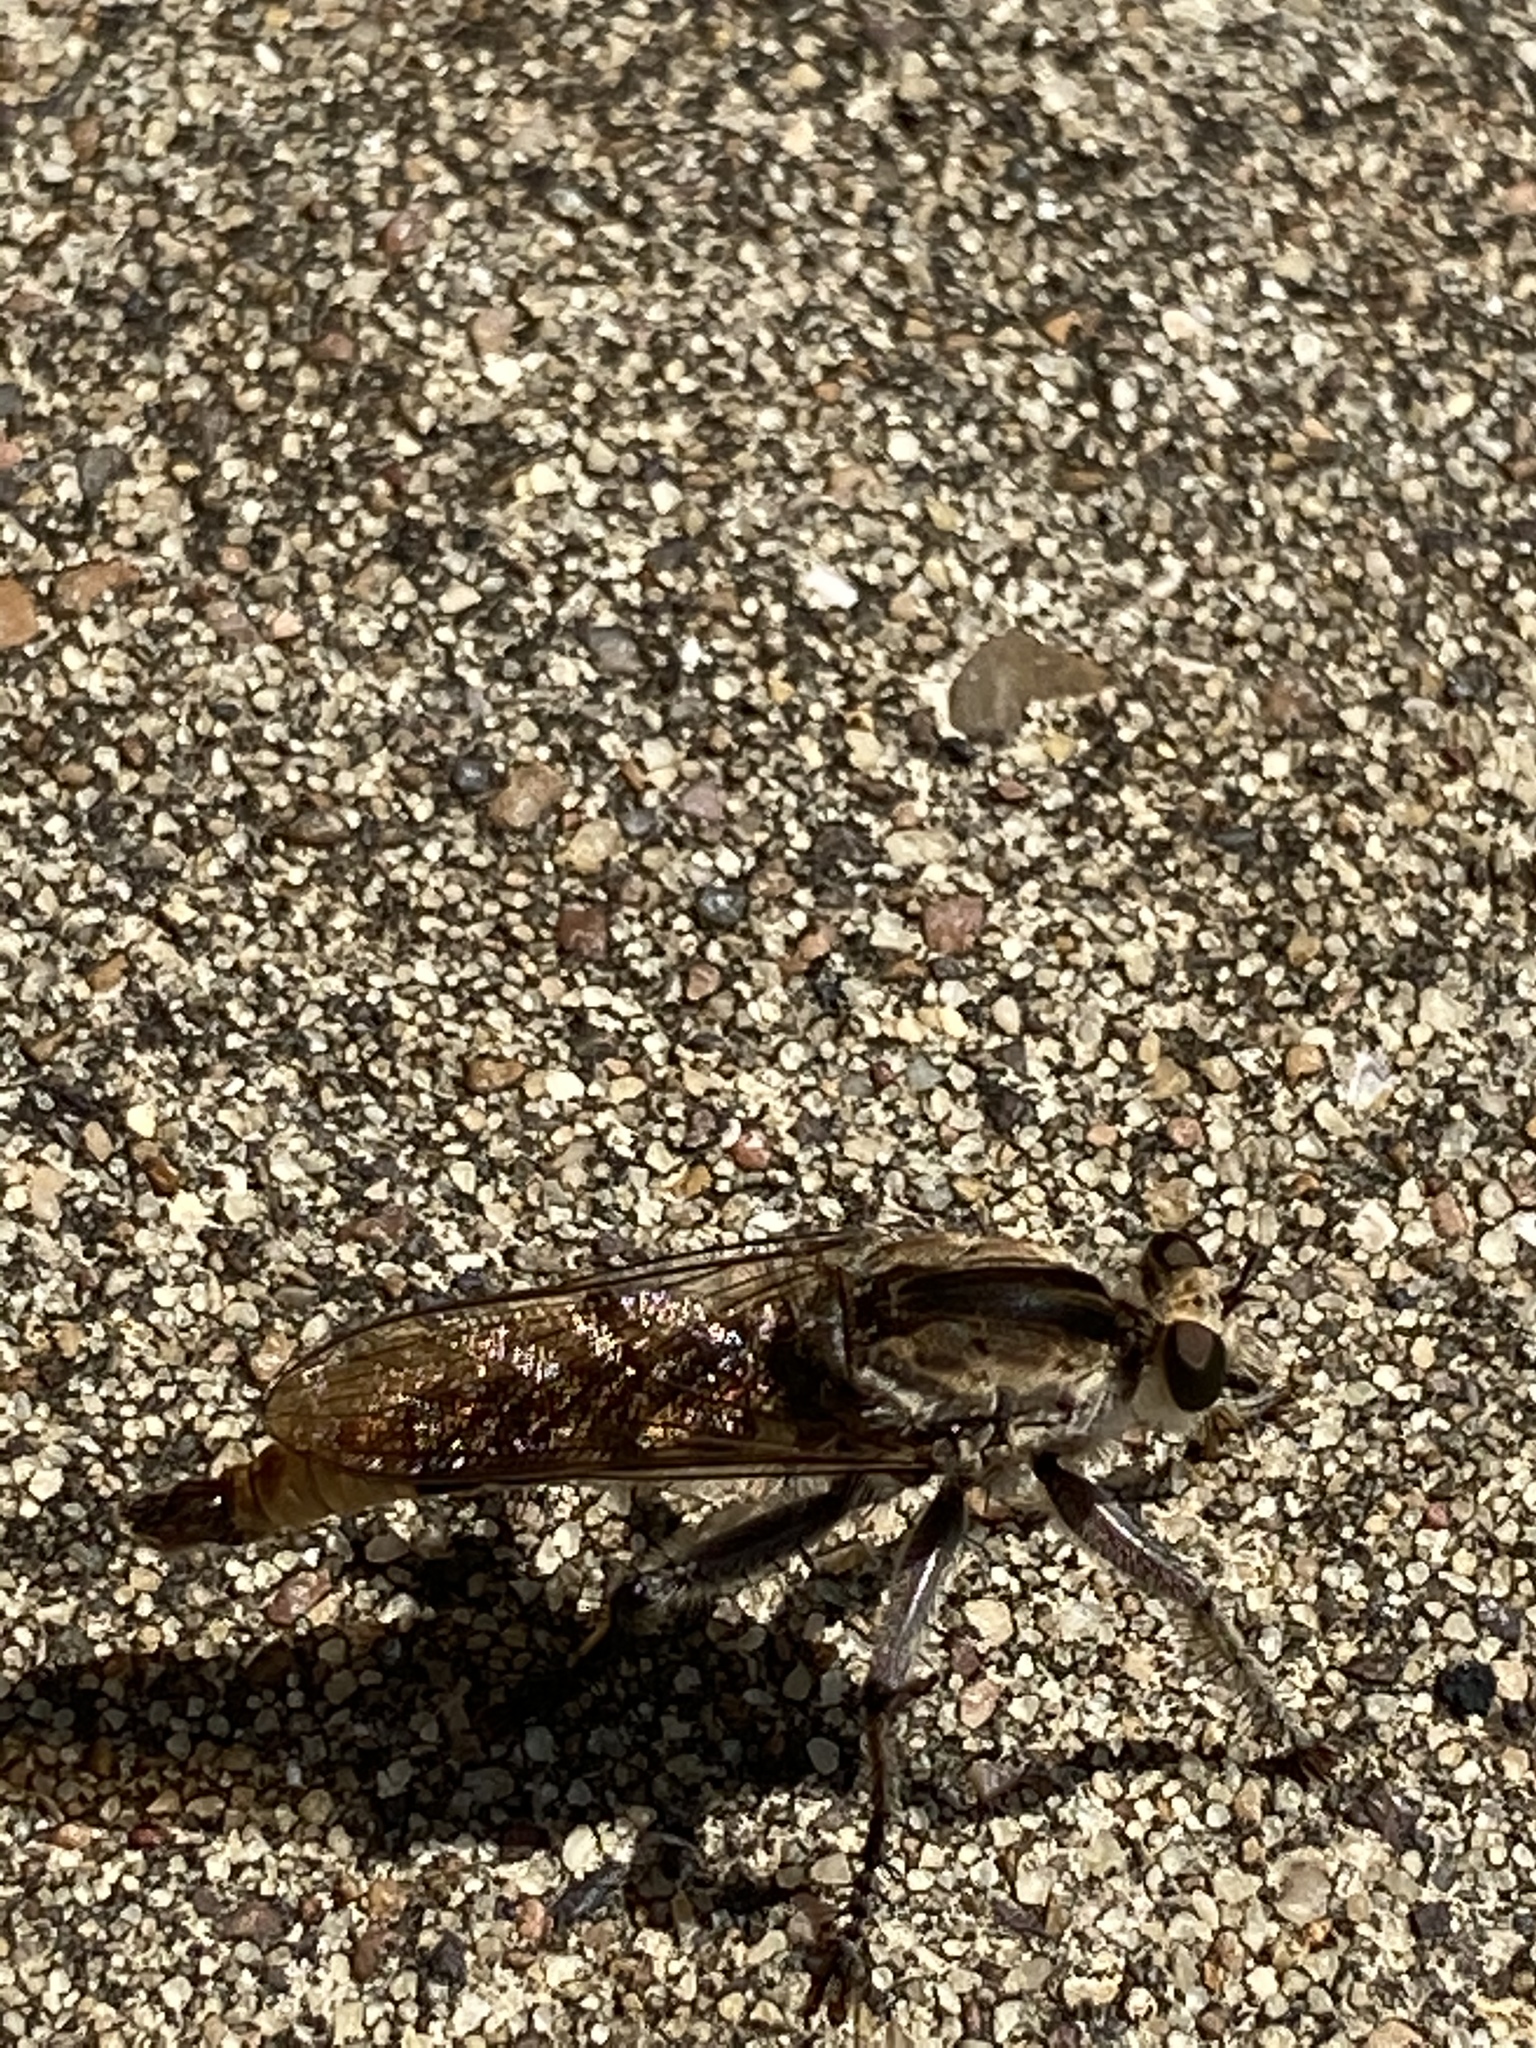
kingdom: Animalia
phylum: Arthropoda
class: Insecta
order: Diptera
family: Asilidae
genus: Triorla
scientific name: Triorla interrupta
